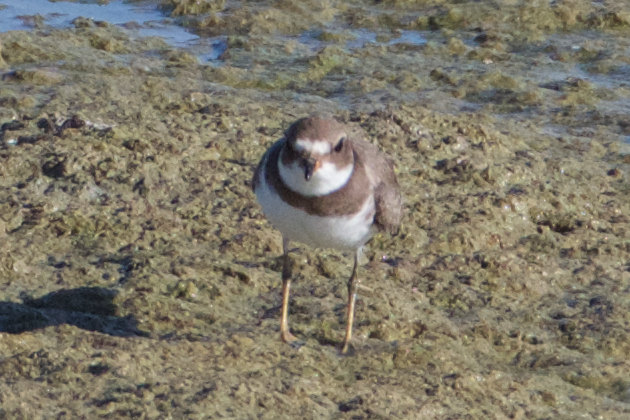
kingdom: Animalia
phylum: Chordata
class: Aves
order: Charadriiformes
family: Charadriidae
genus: Charadrius
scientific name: Charadrius semipalmatus
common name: Semipalmated plover
